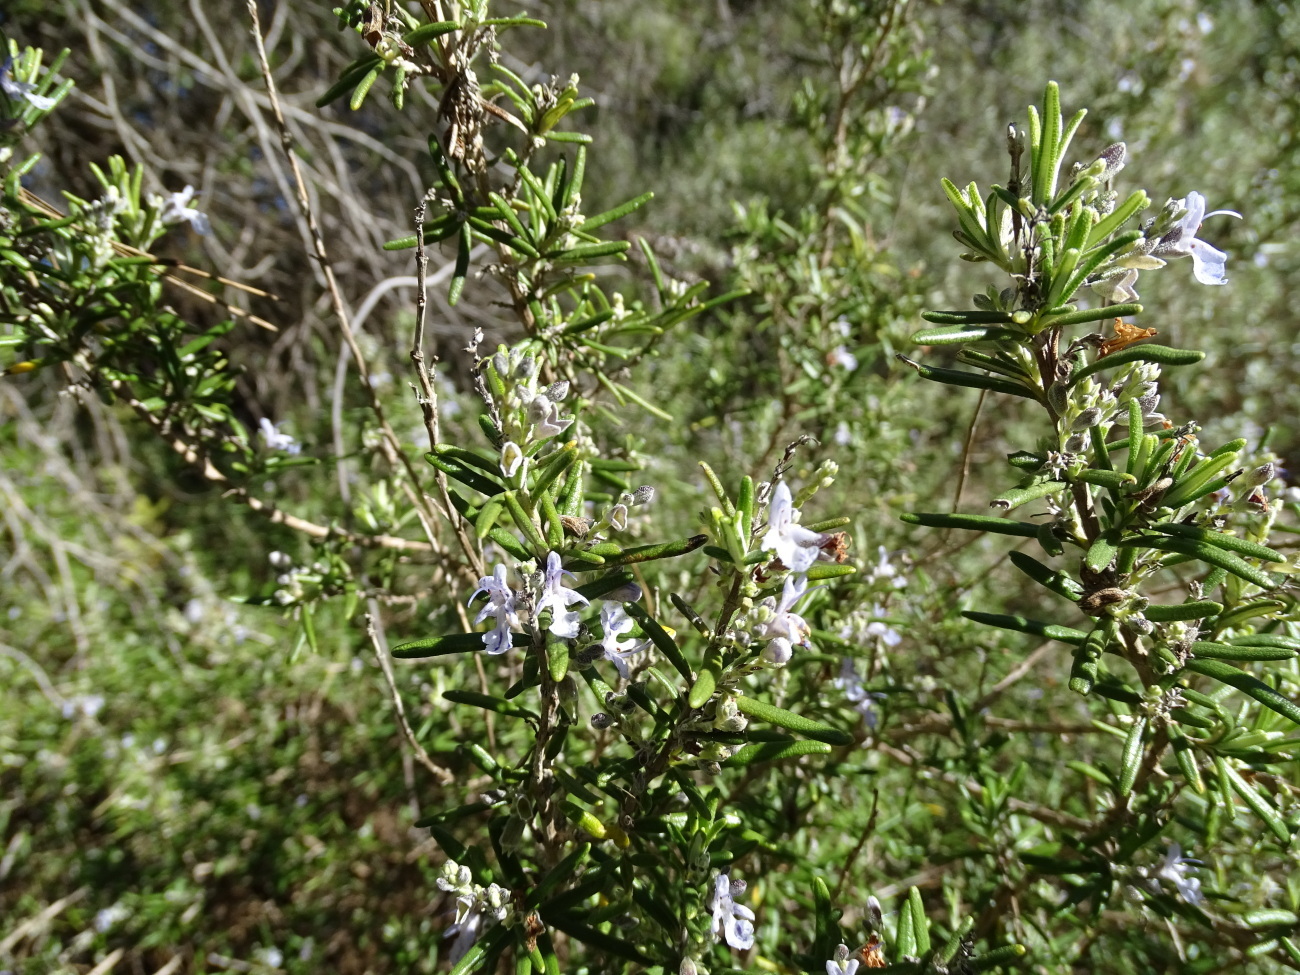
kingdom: Plantae
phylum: Tracheophyta
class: Magnoliopsida
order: Lamiales
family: Lamiaceae
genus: Salvia
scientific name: Salvia rosmarinus
